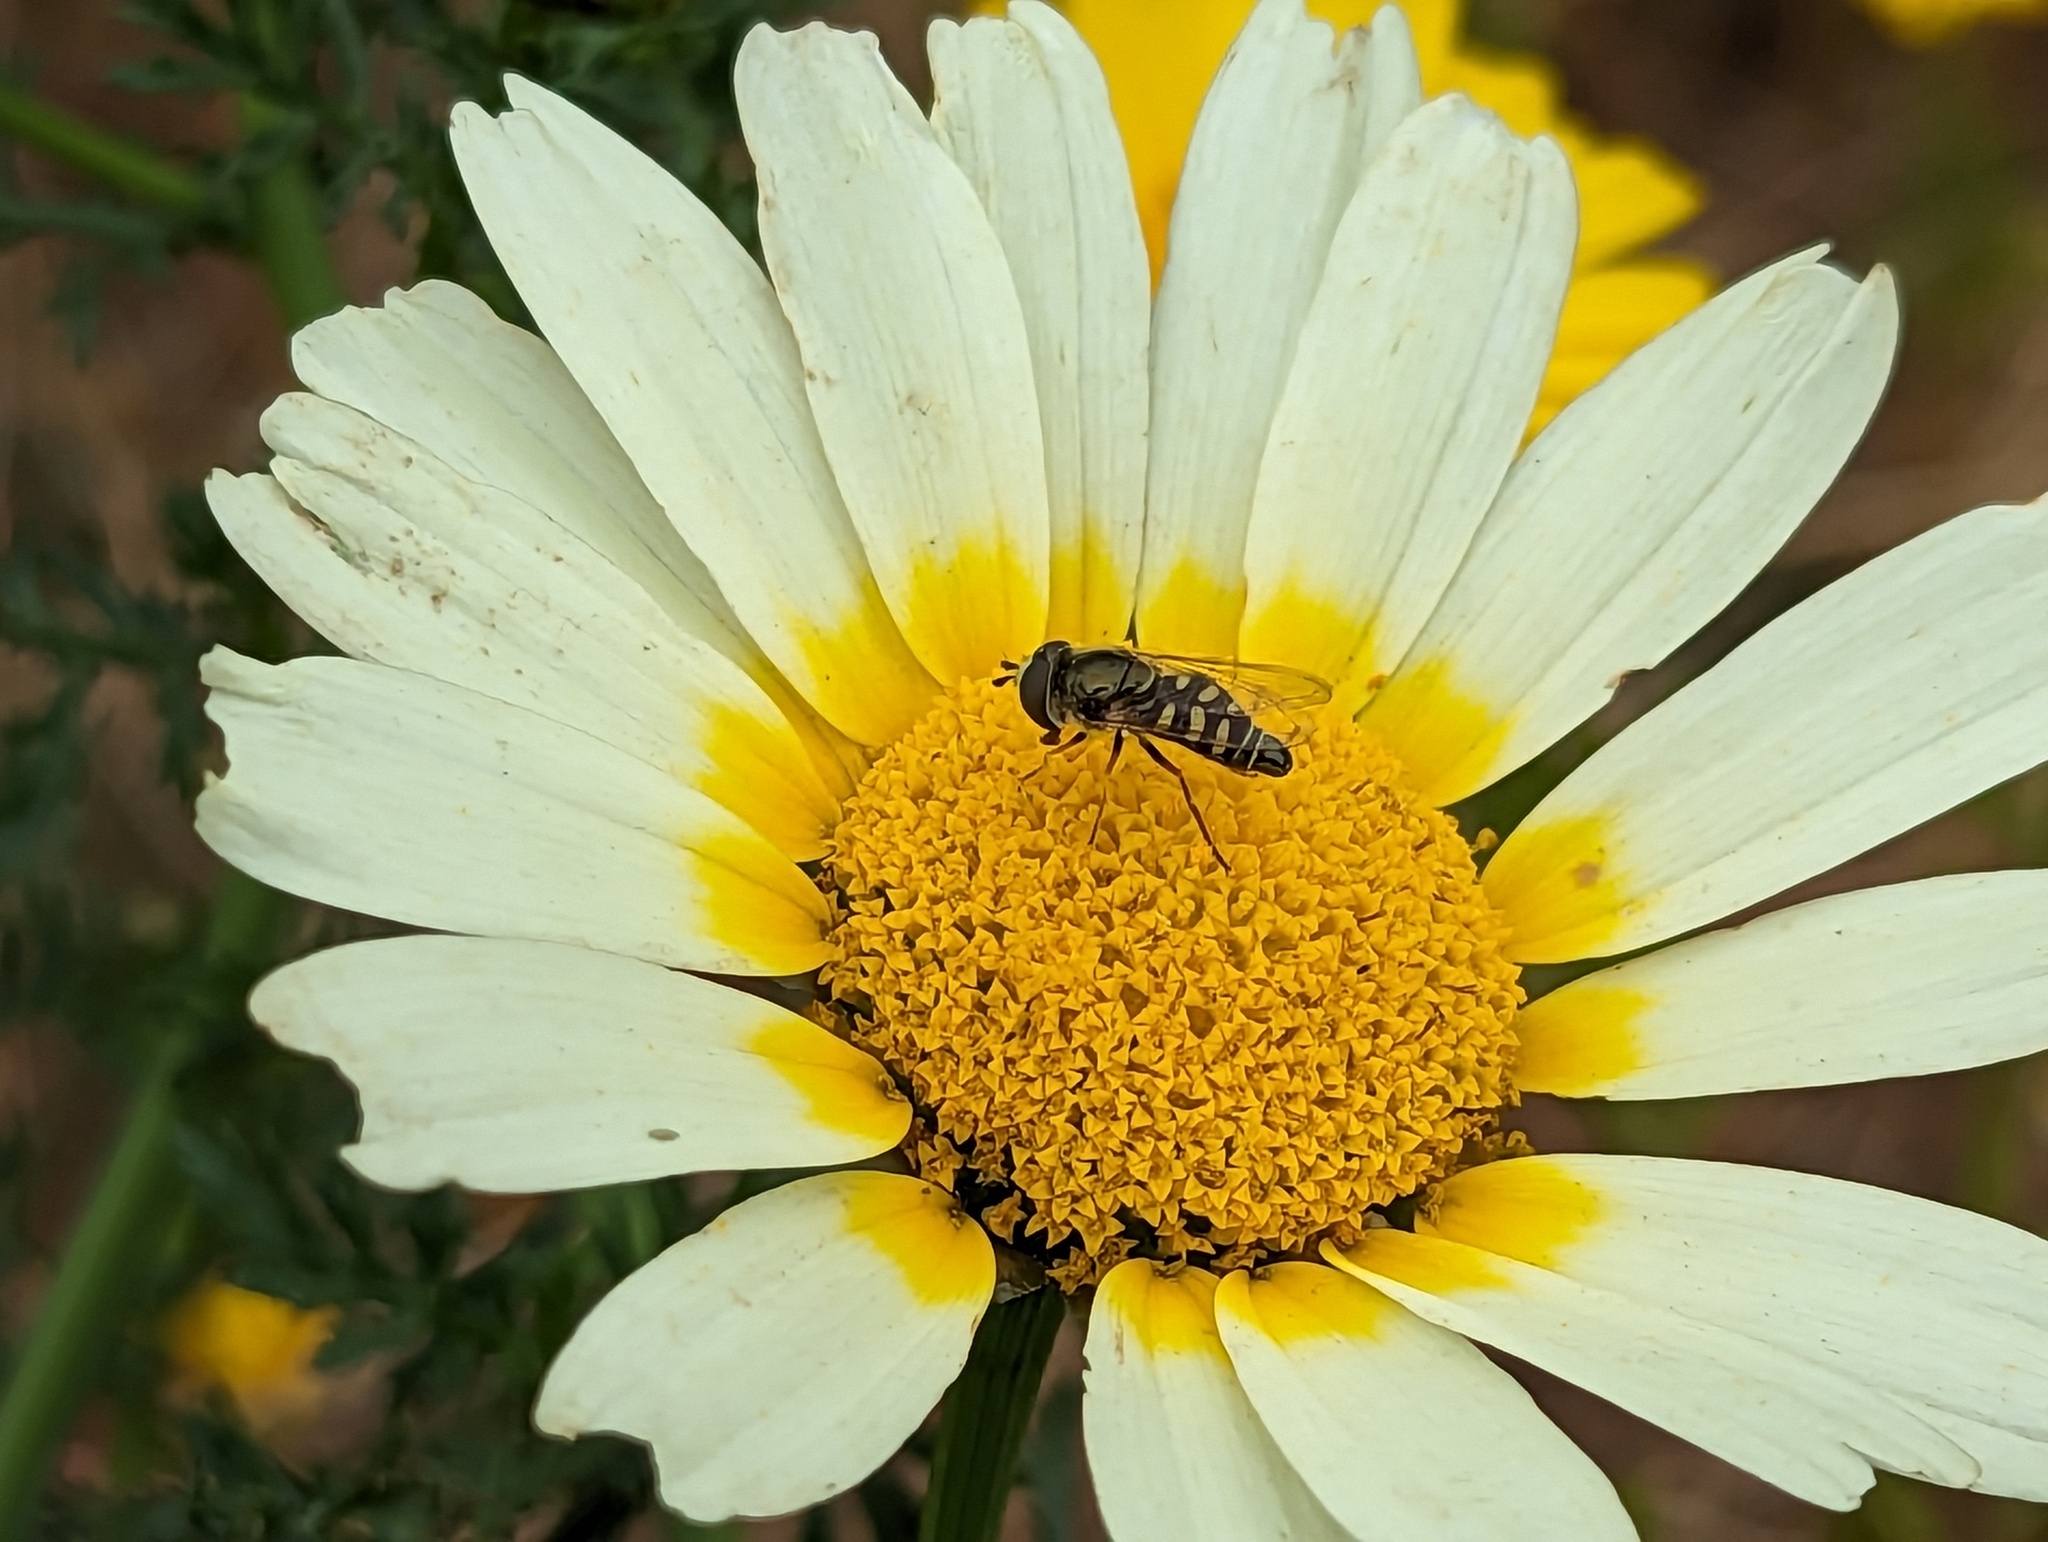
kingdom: Animalia
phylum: Arthropoda
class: Insecta
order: Diptera
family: Syrphidae
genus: Eupeodes
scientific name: Eupeodes volucris
